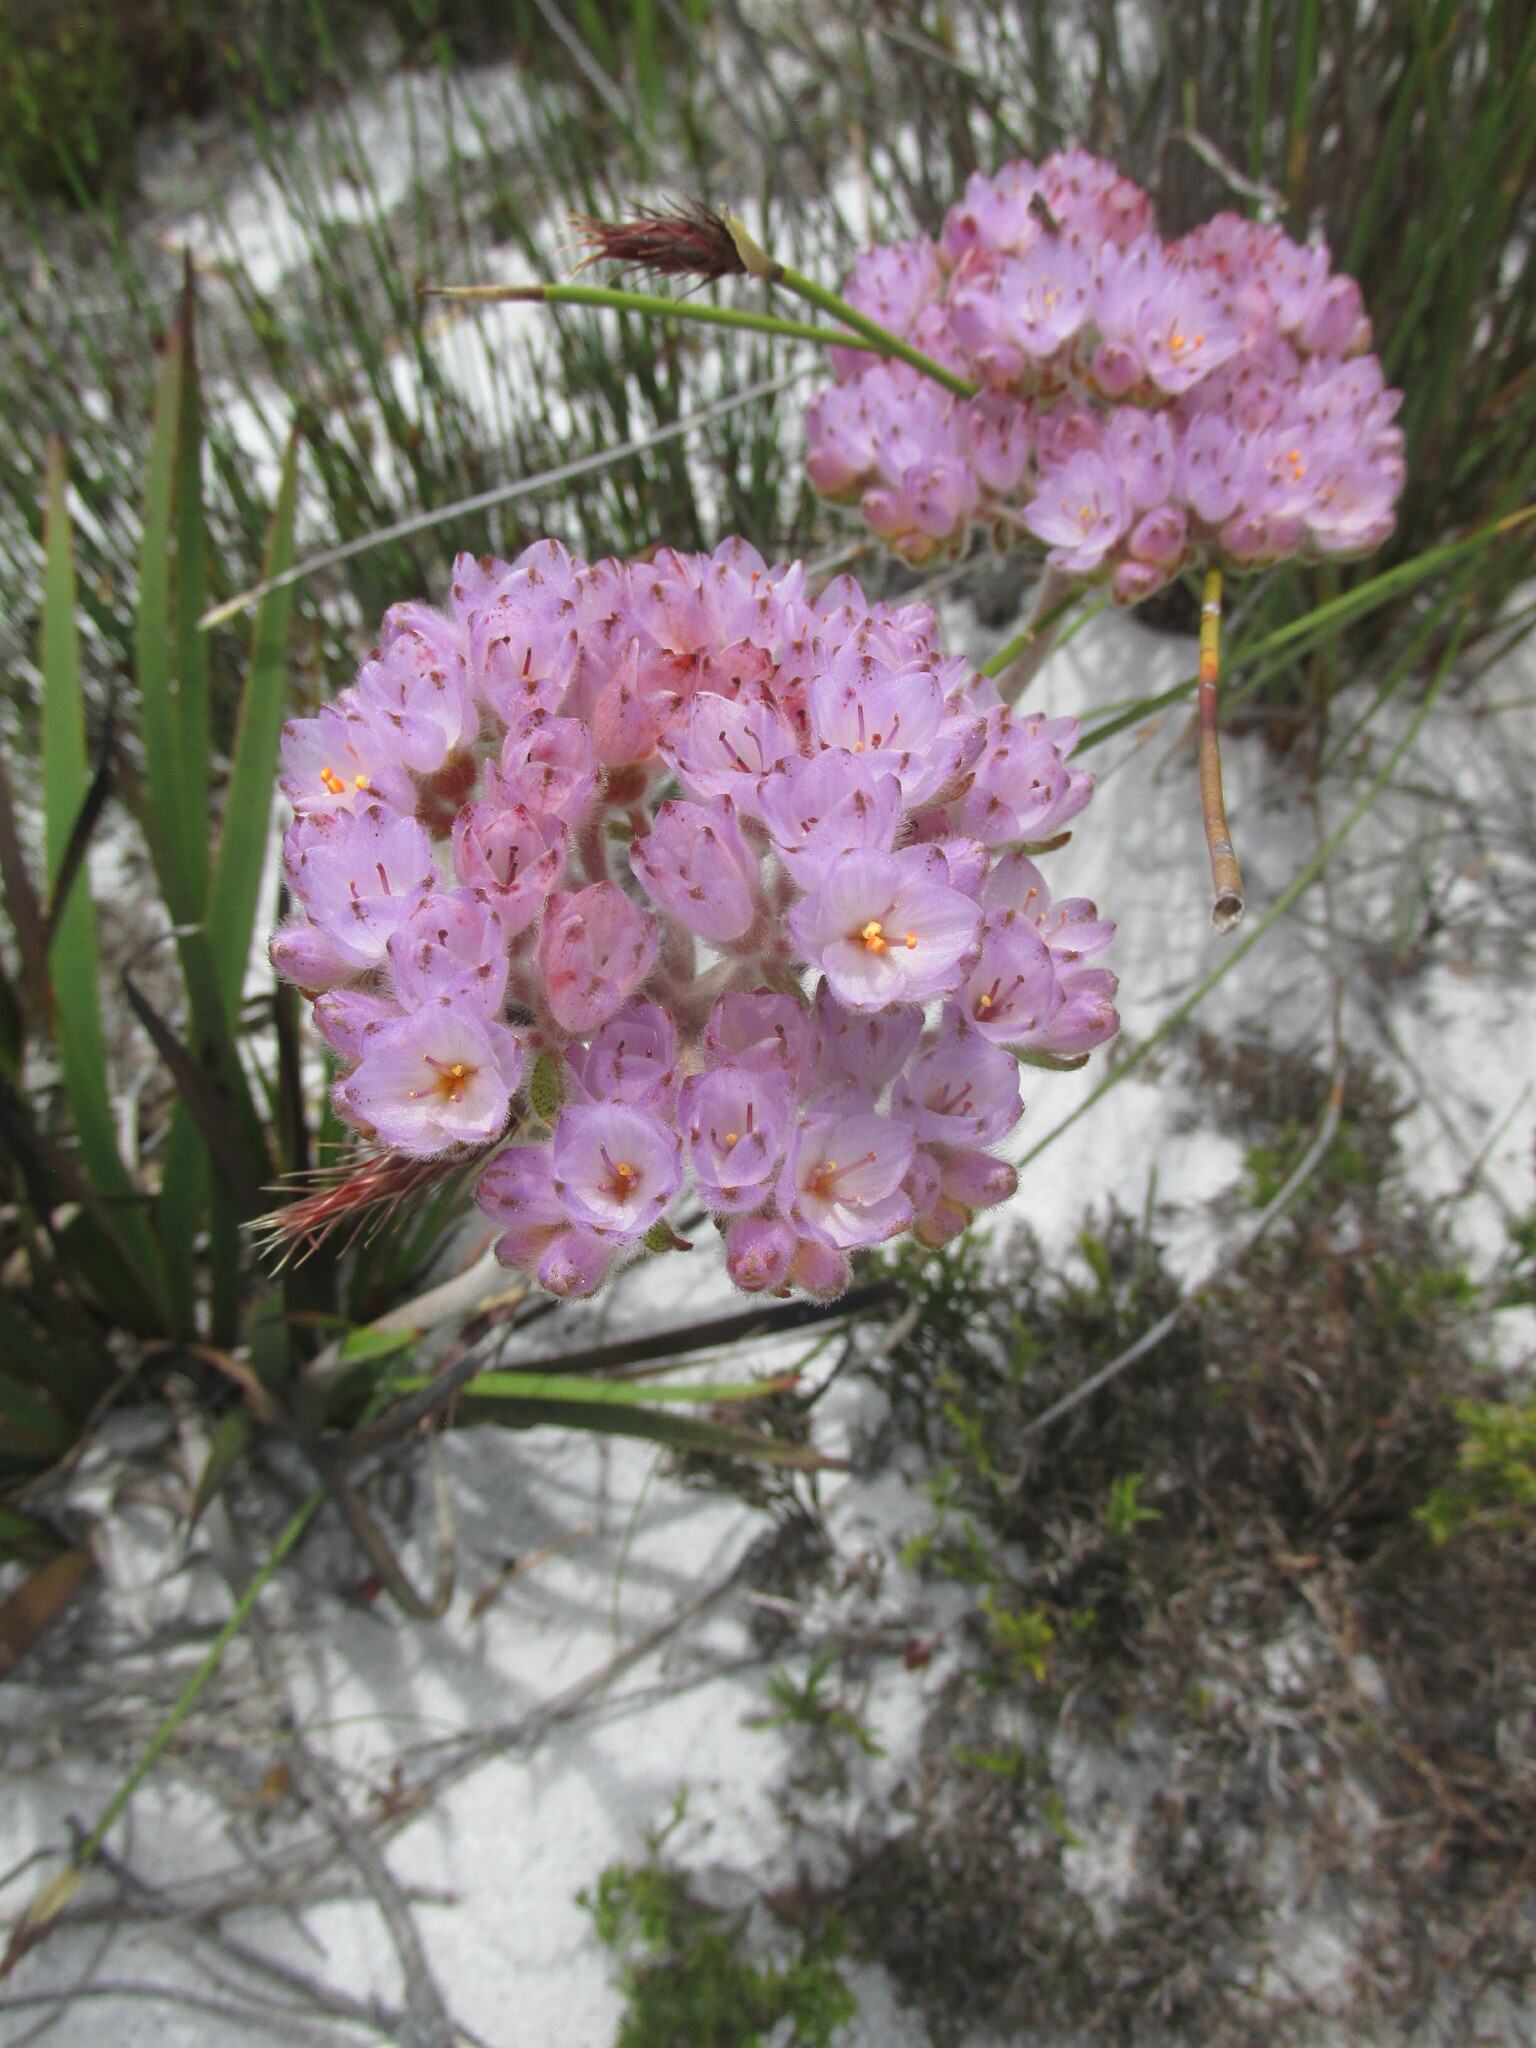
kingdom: Plantae
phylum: Tracheophyta
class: Liliopsida
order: Commelinales
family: Haemodoraceae
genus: Dilatris
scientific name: Dilatris pillansii
